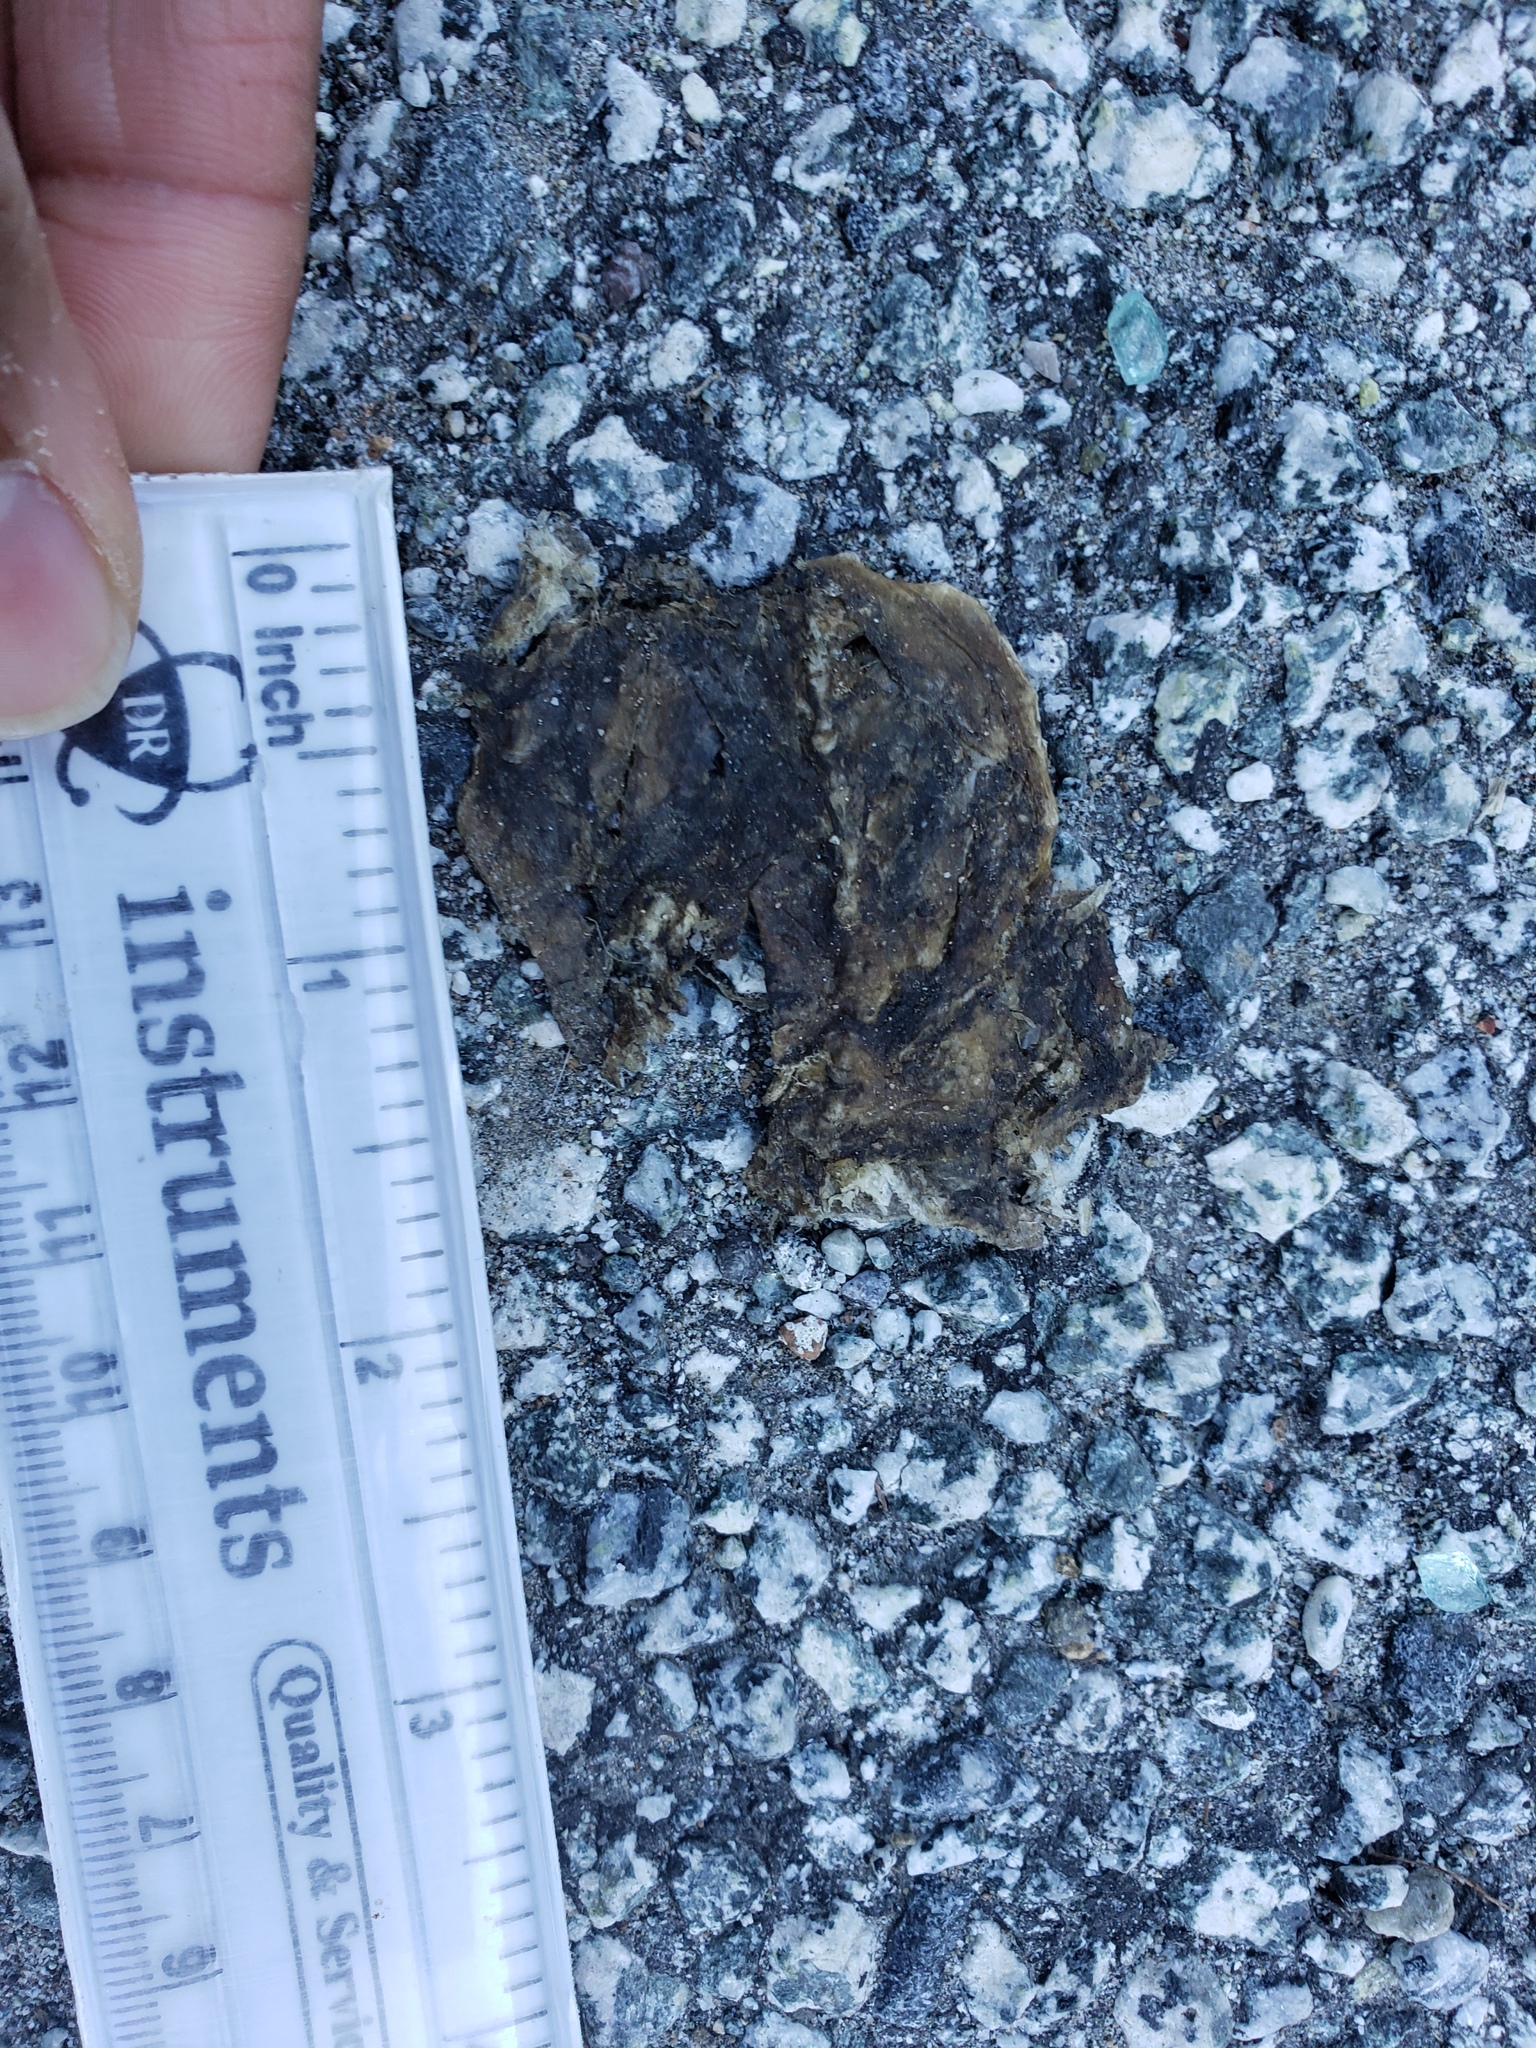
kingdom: Animalia
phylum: Chordata
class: Amphibia
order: Caudata
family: Salamandridae
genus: Taricha
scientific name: Taricha
